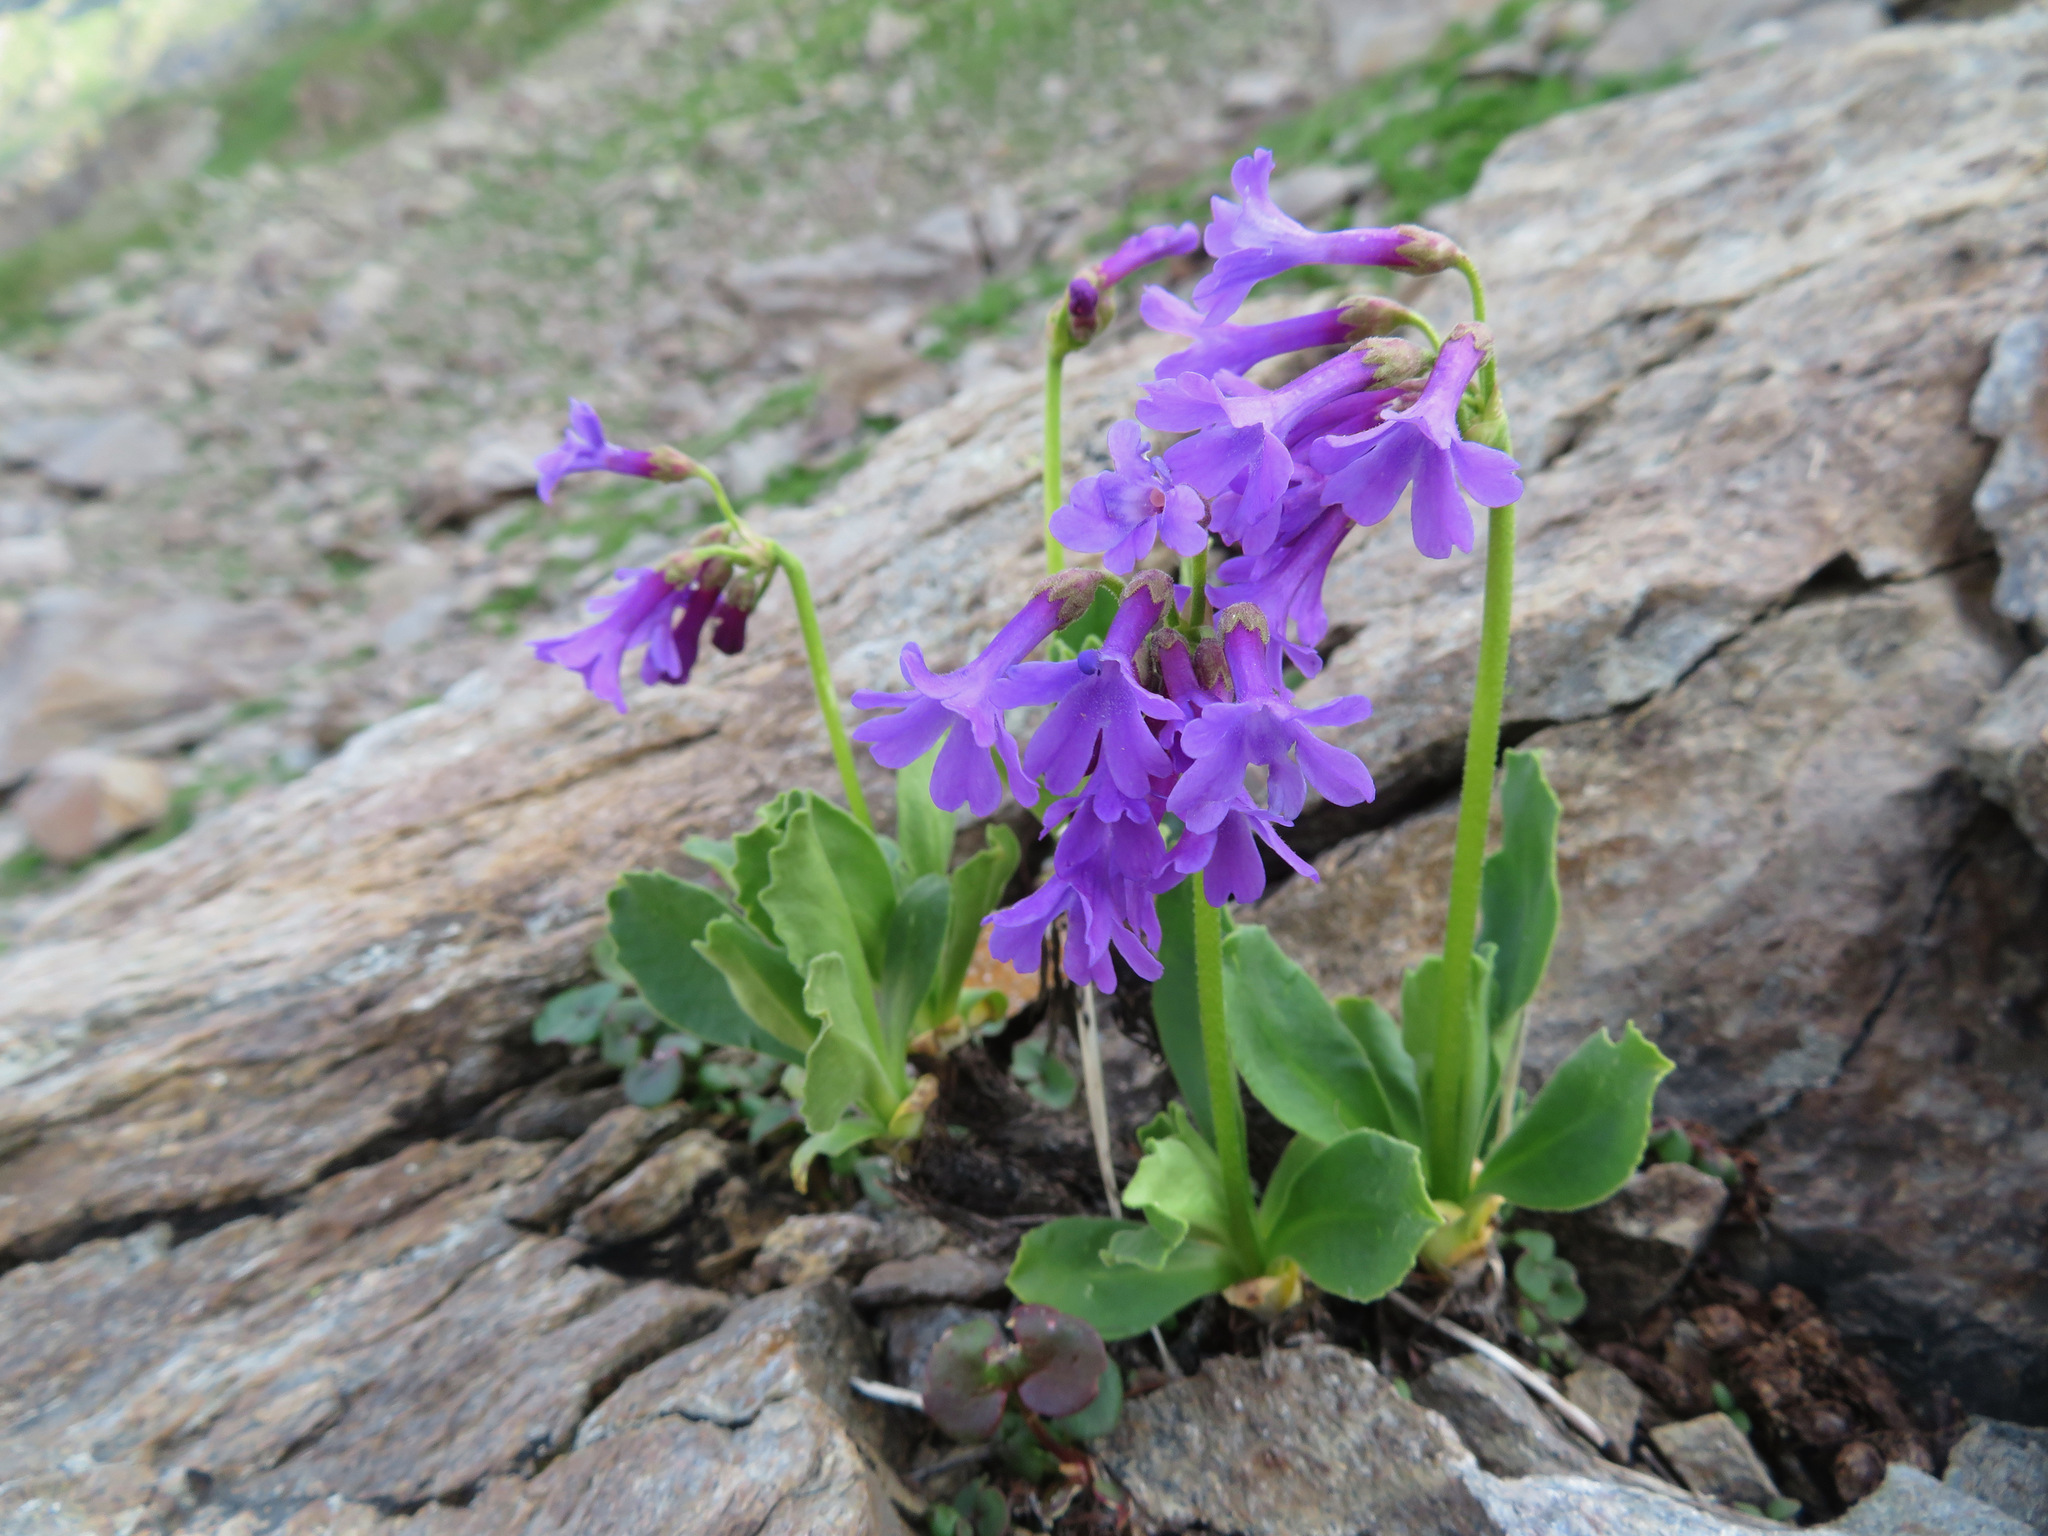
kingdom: Plantae
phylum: Tracheophyta
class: Magnoliopsida
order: Ericales
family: Primulaceae
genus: Primula
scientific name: Primula latifolia
